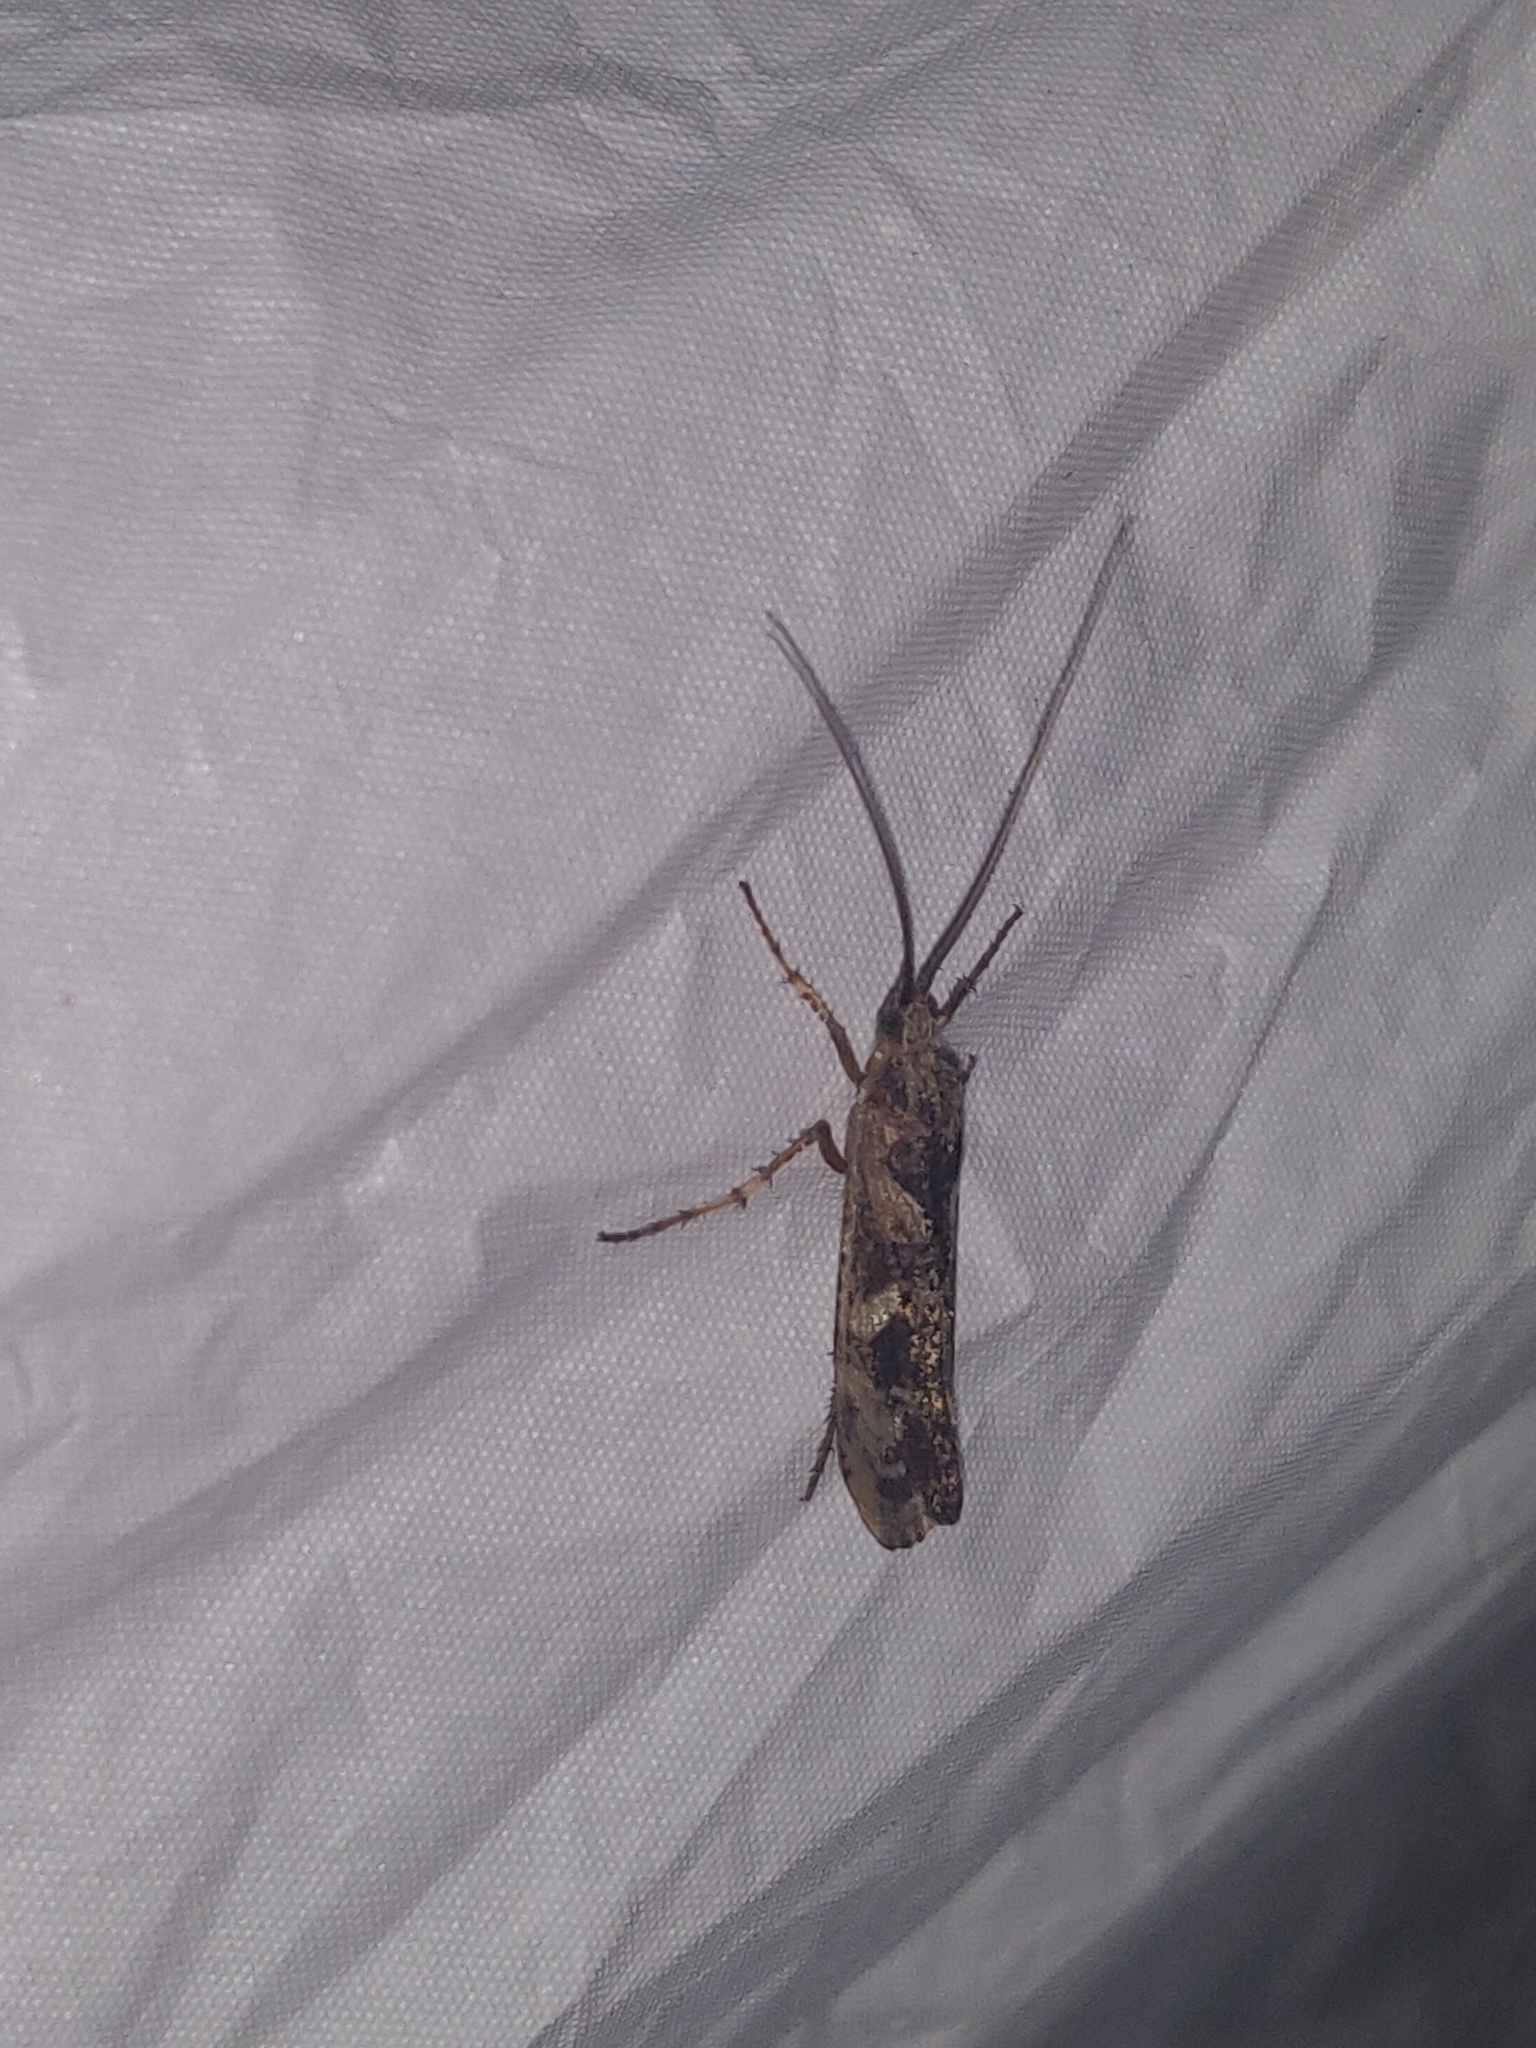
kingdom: Animalia
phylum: Arthropoda
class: Insecta
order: Trichoptera
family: Limnephilidae
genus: Glyphotaelius
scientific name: Glyphotaelius pellucidus
